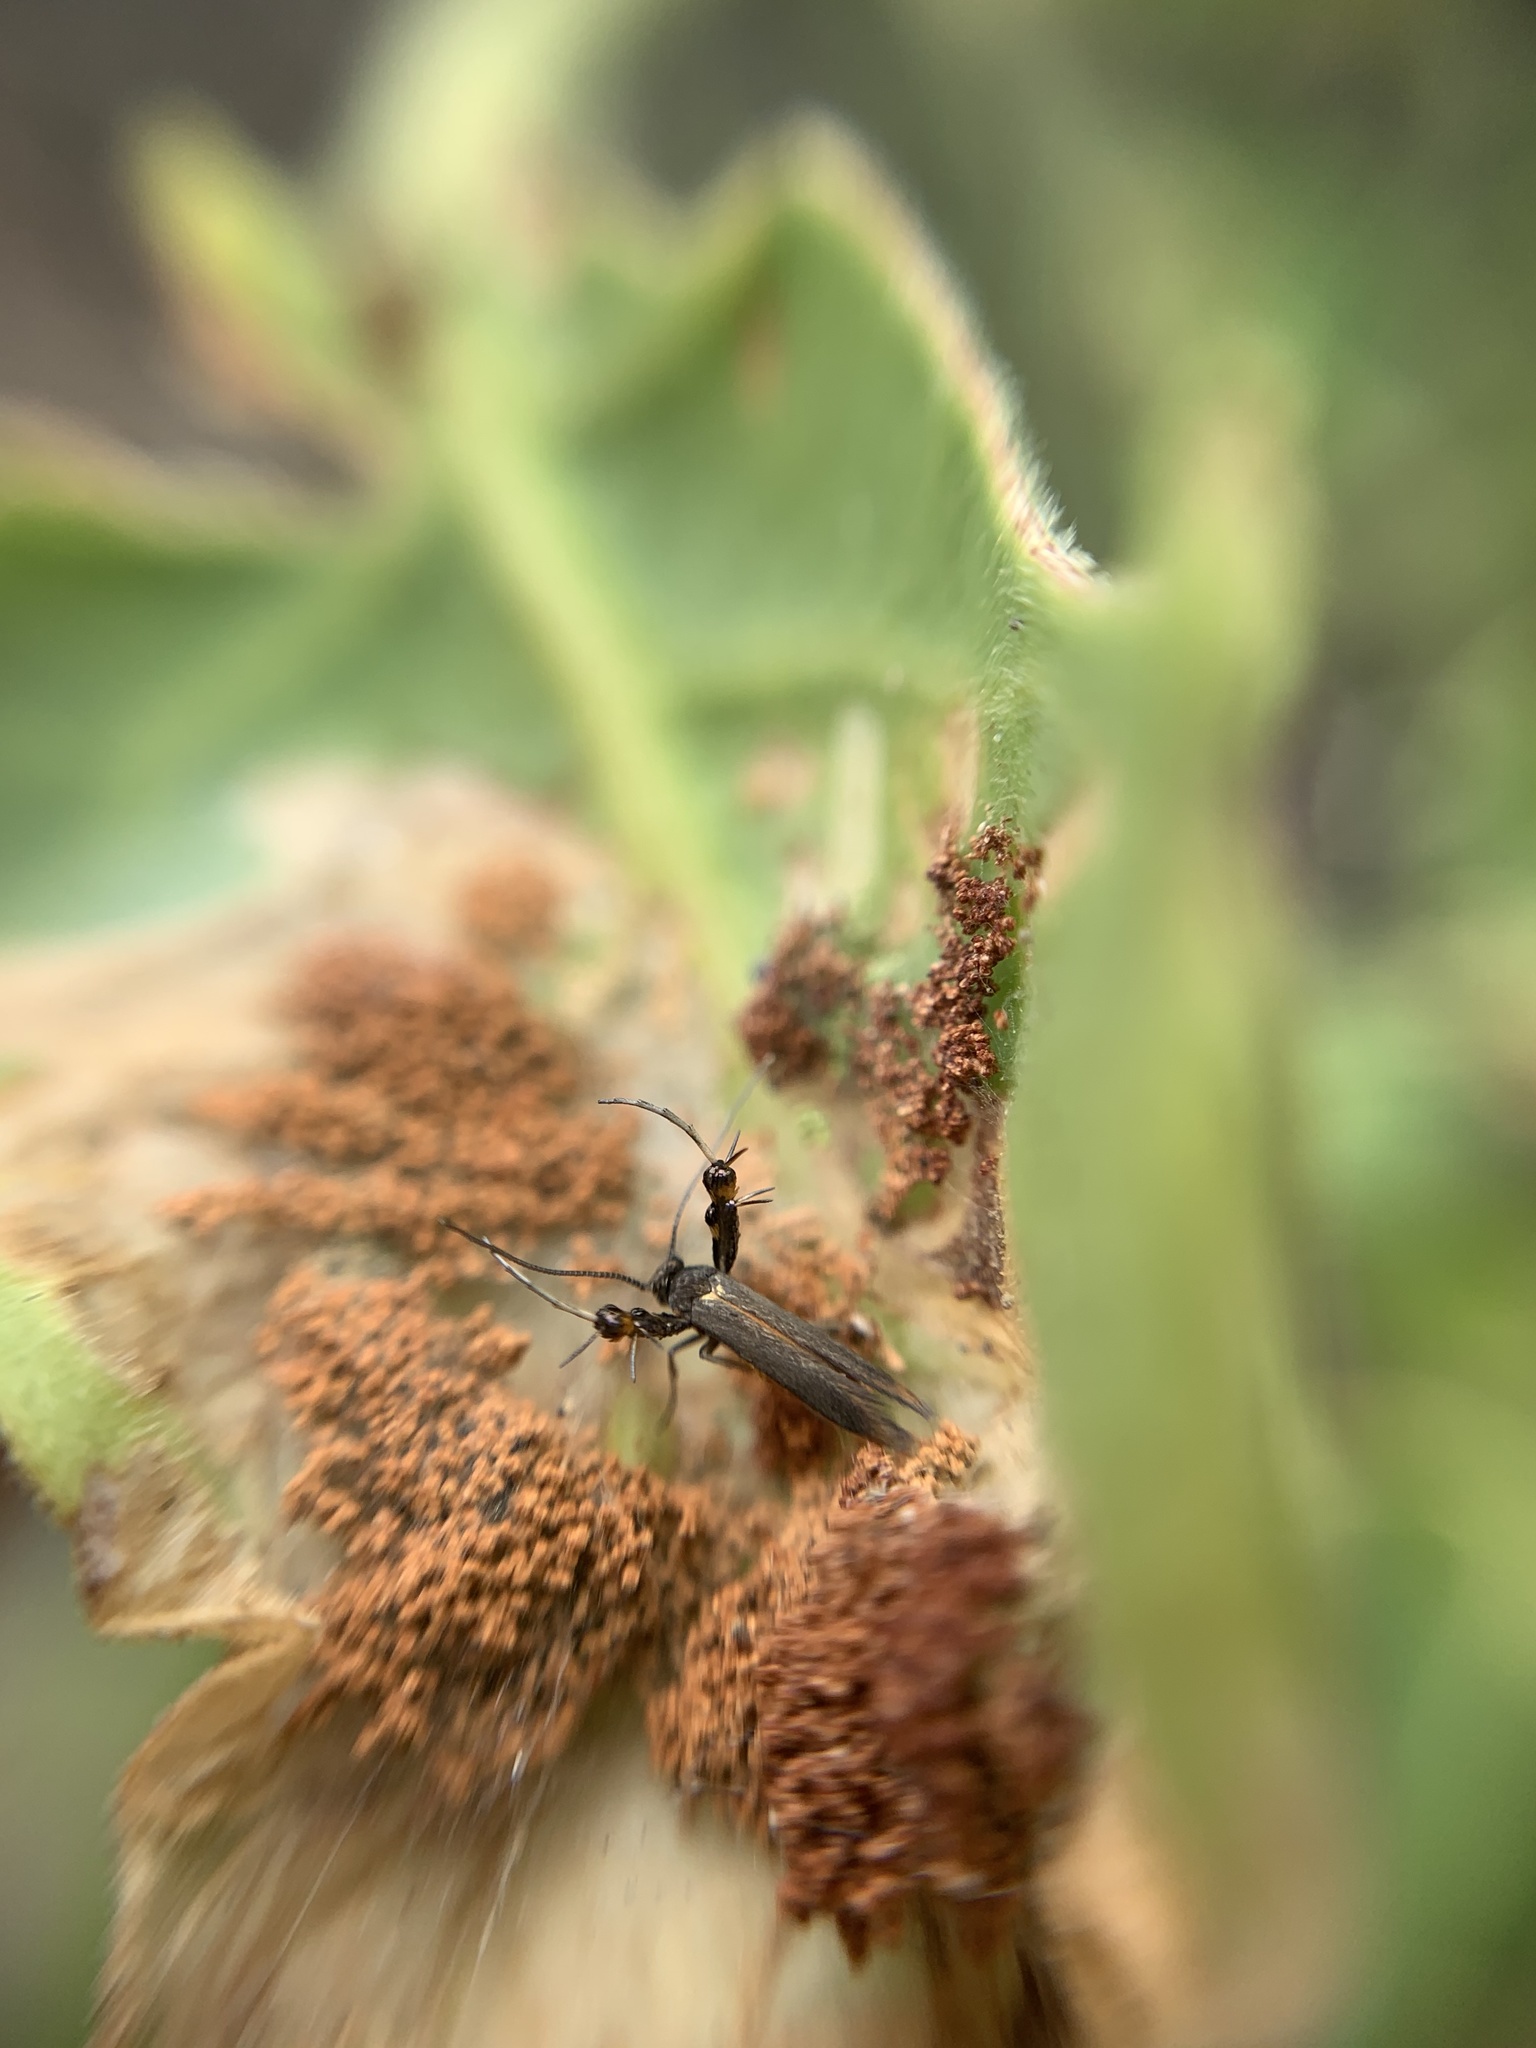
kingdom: Animalia
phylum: Arthropoda
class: Insecta
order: Lepidoptera
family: Heliodinidae
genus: Heliodines
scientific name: Heliodines
